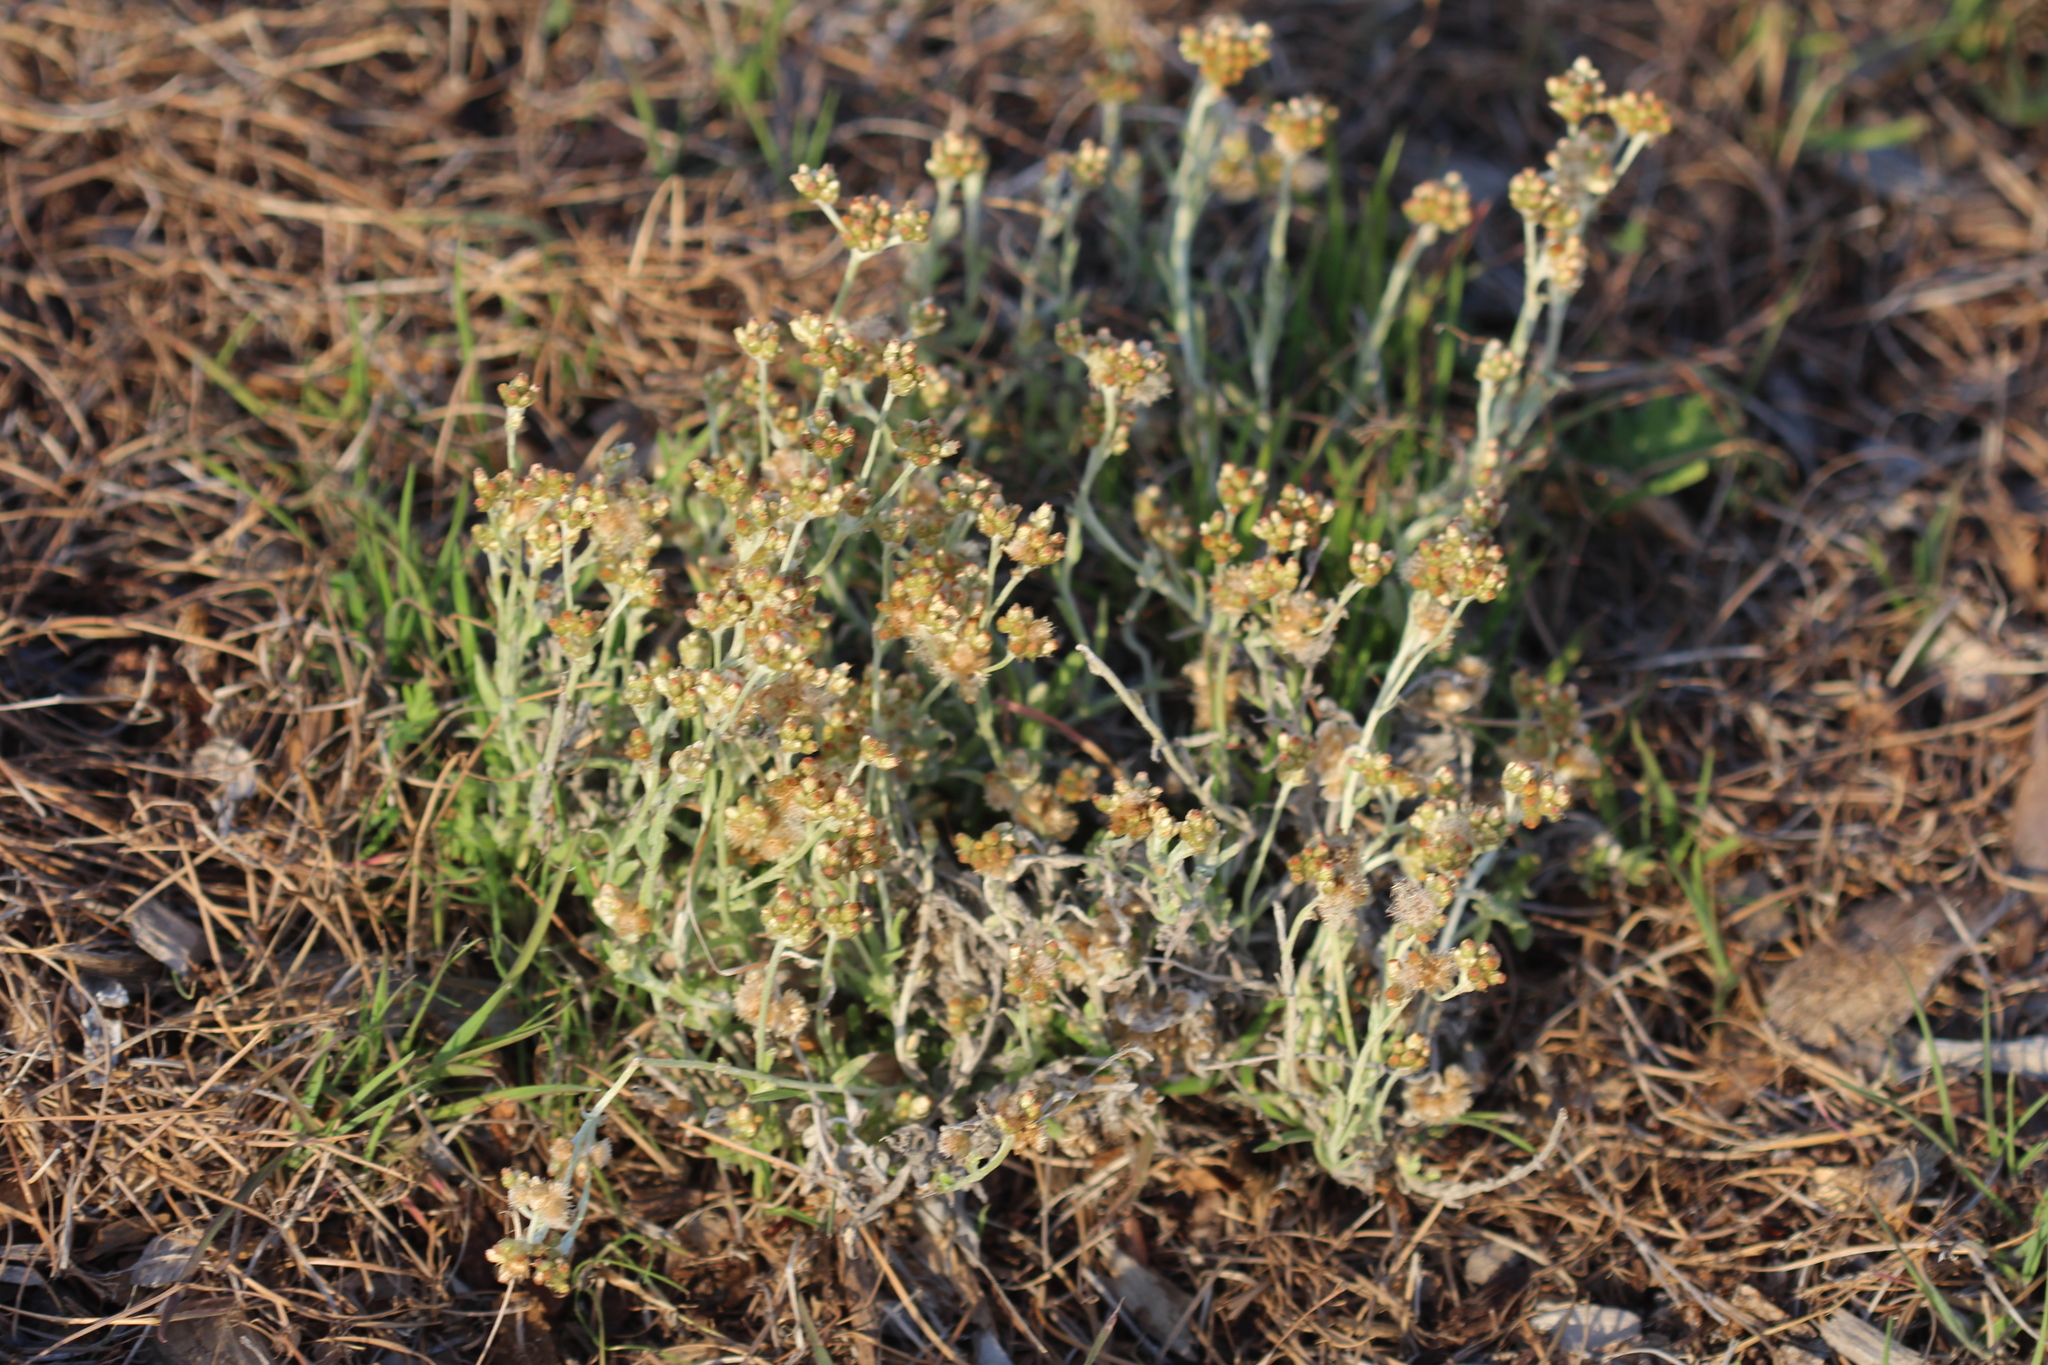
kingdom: Plantae
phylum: Tracheophyta
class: Magnoliopsida
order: Asterales
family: Asteraceae
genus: Helichrysum
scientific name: Helichrysum luteoalbum
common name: Daisy
